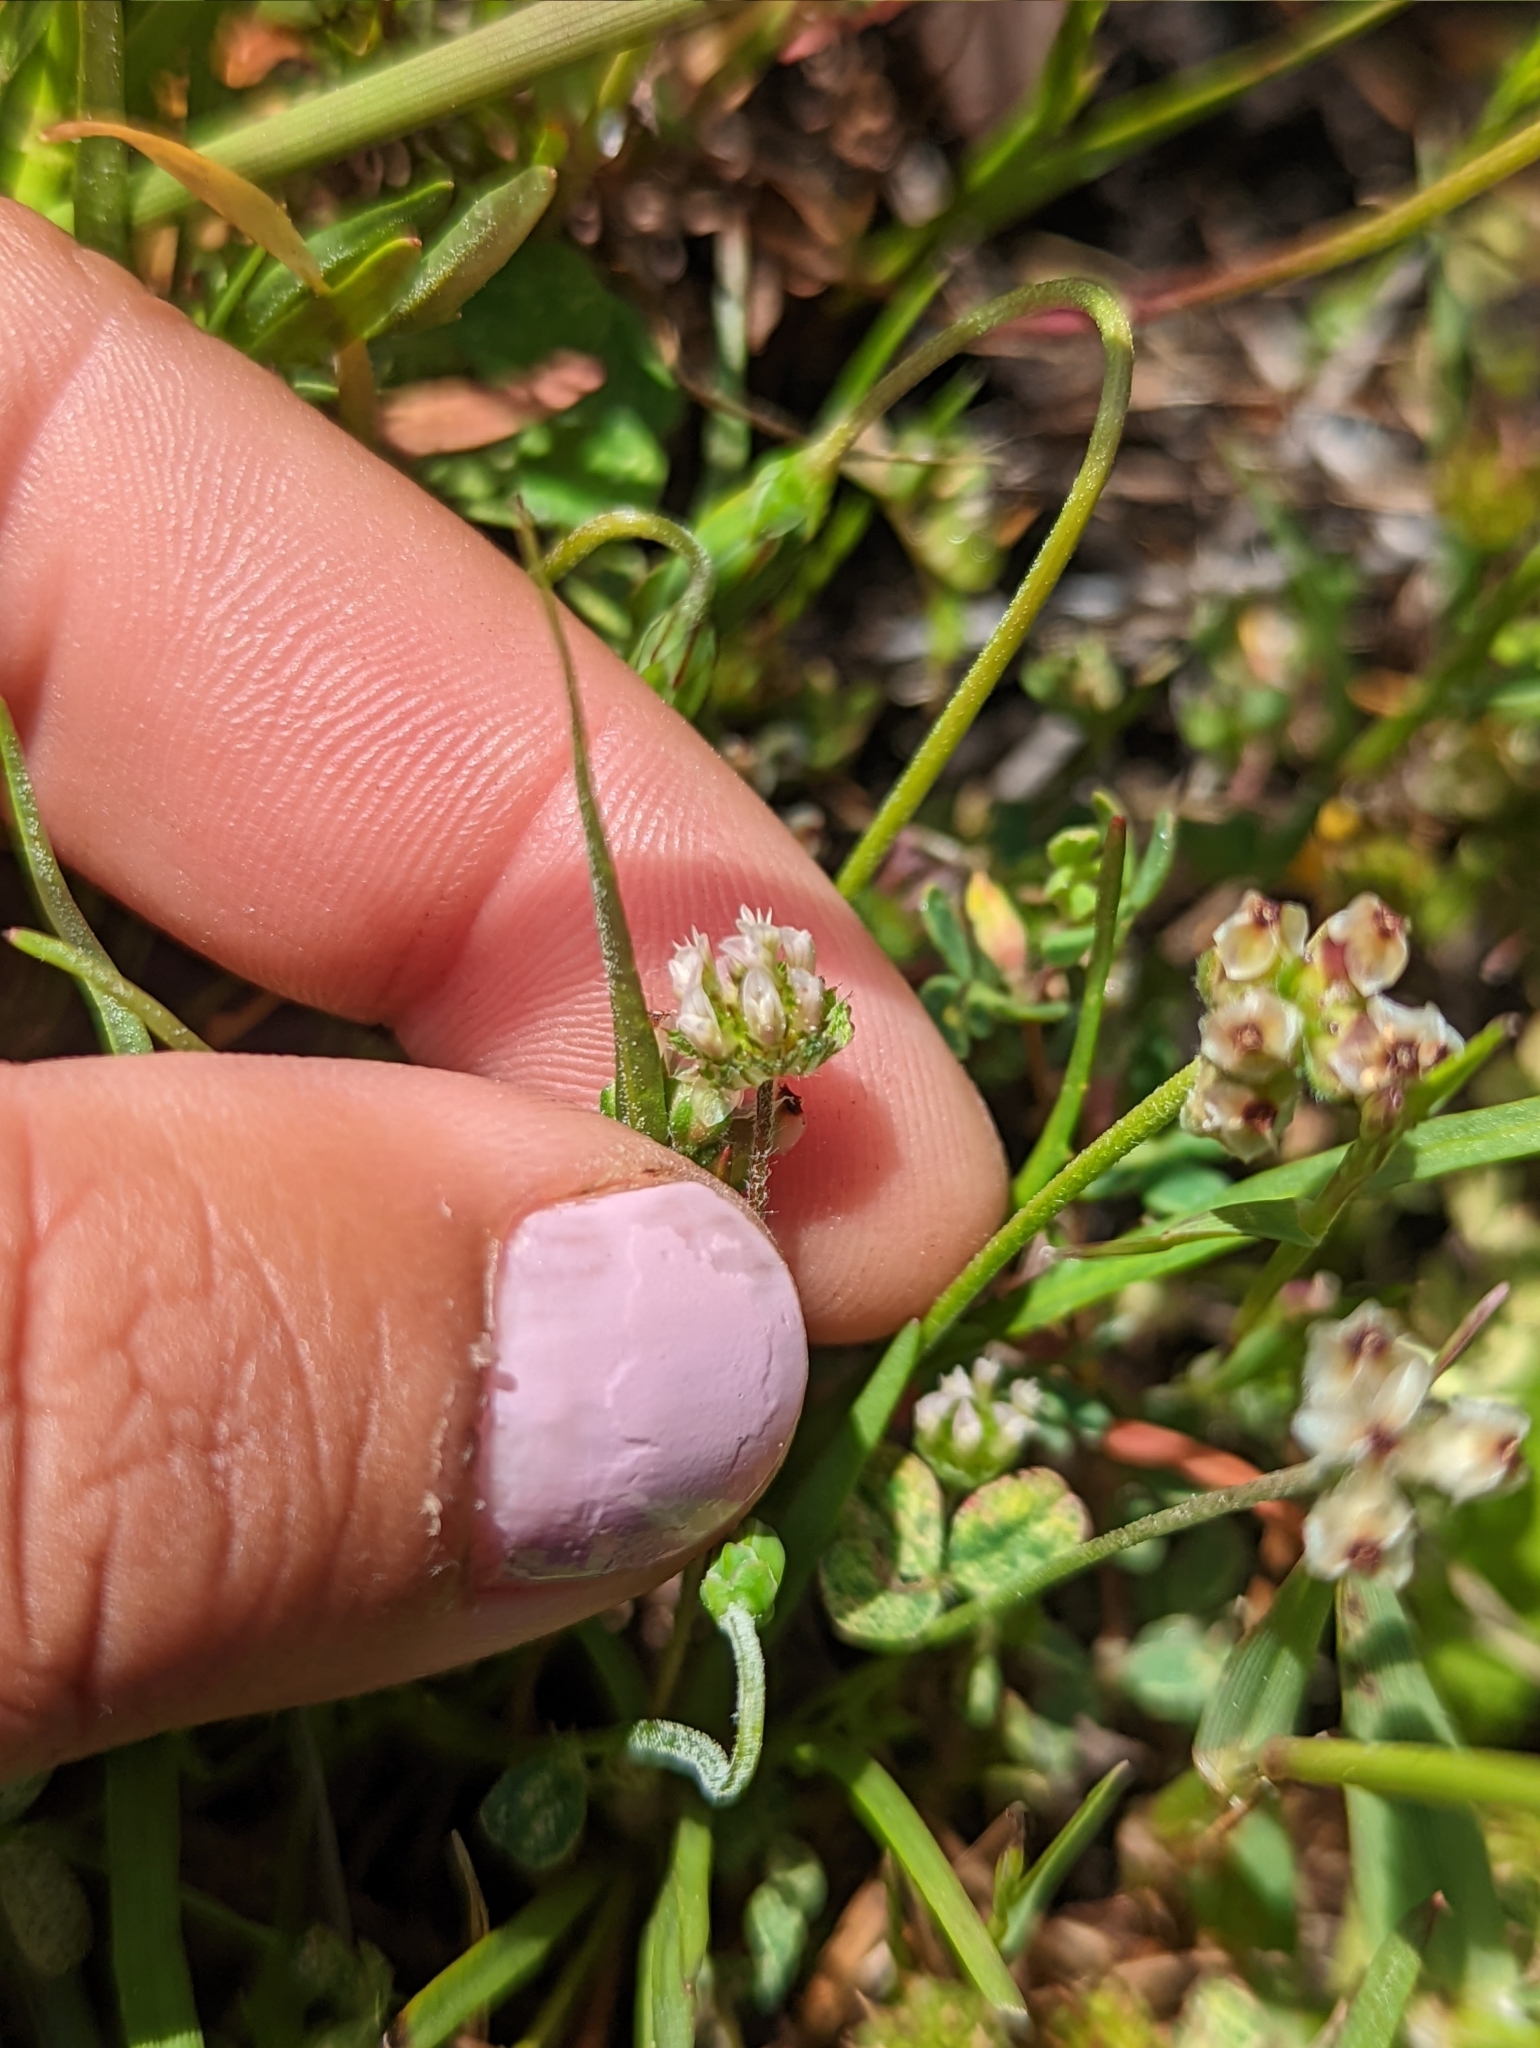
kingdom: Plantae
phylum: Tracheophyta
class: Magnoliopsida
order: Fabales
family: Fabaceae
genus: Trifolium
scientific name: Trifolium microdon
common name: Thimble clover
